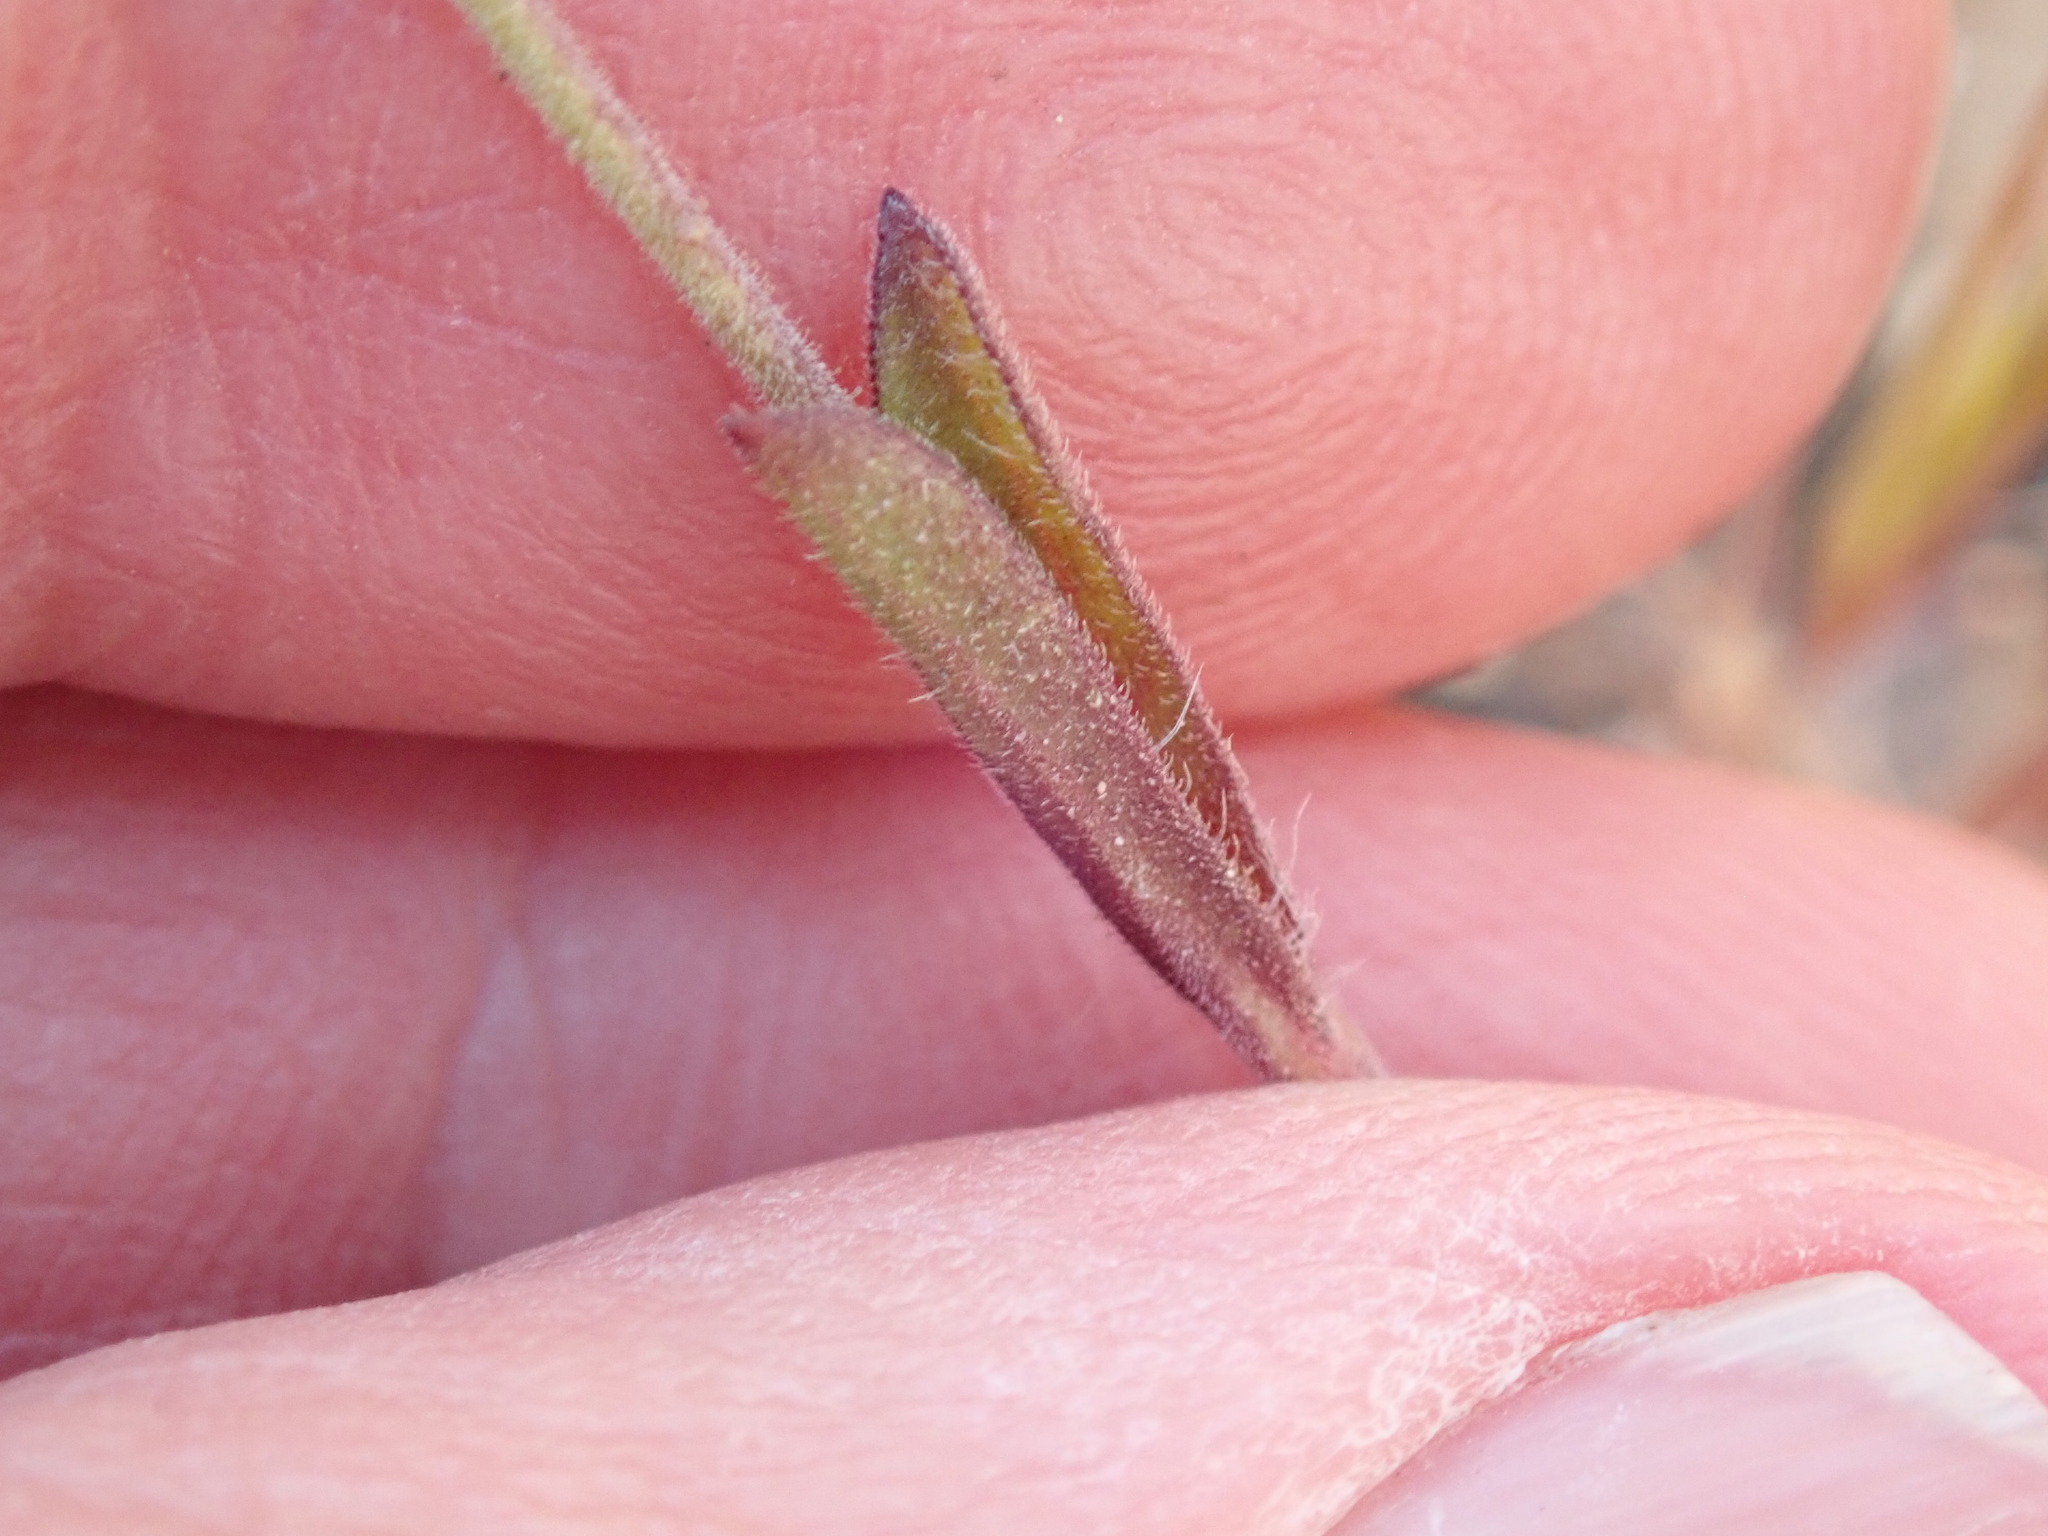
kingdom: Plantae
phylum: Tracheophyta
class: Magnoliopsida
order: Caryophyllales
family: Caryophyllaceae
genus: Silene
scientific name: Silene gallica
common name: Small-flowered catchfly
